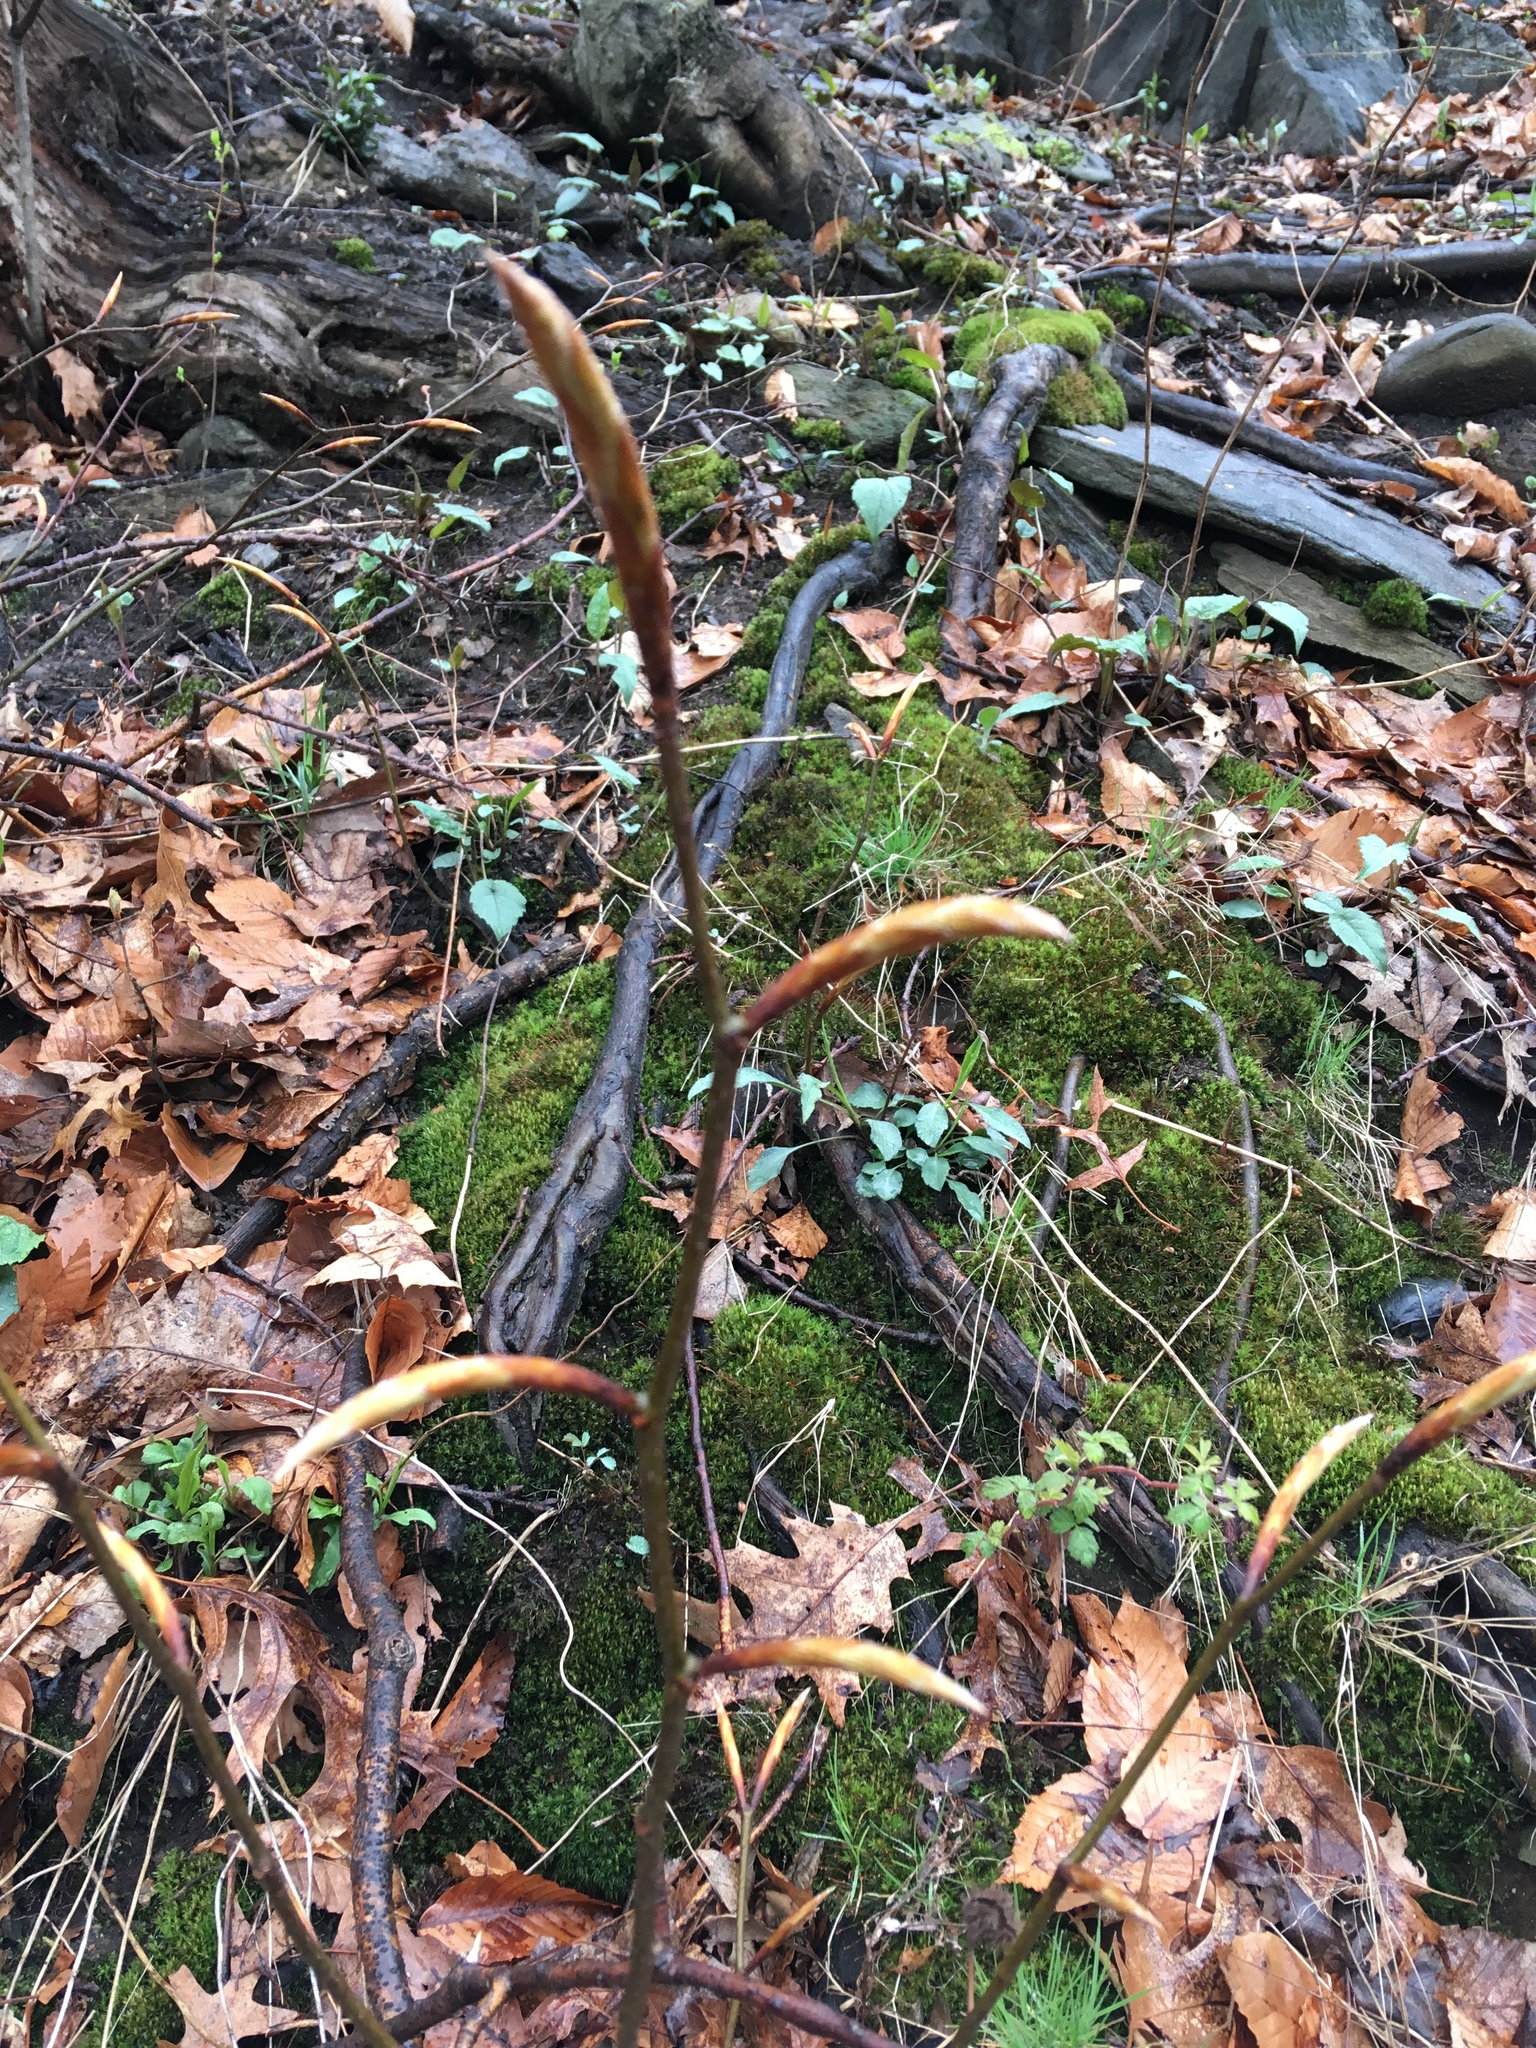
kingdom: Plantae
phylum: Tracheophyta
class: Magnoliopsida
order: Fagales
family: Fagaceae
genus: Fagus
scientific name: Fagus grandifolia
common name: American beech
